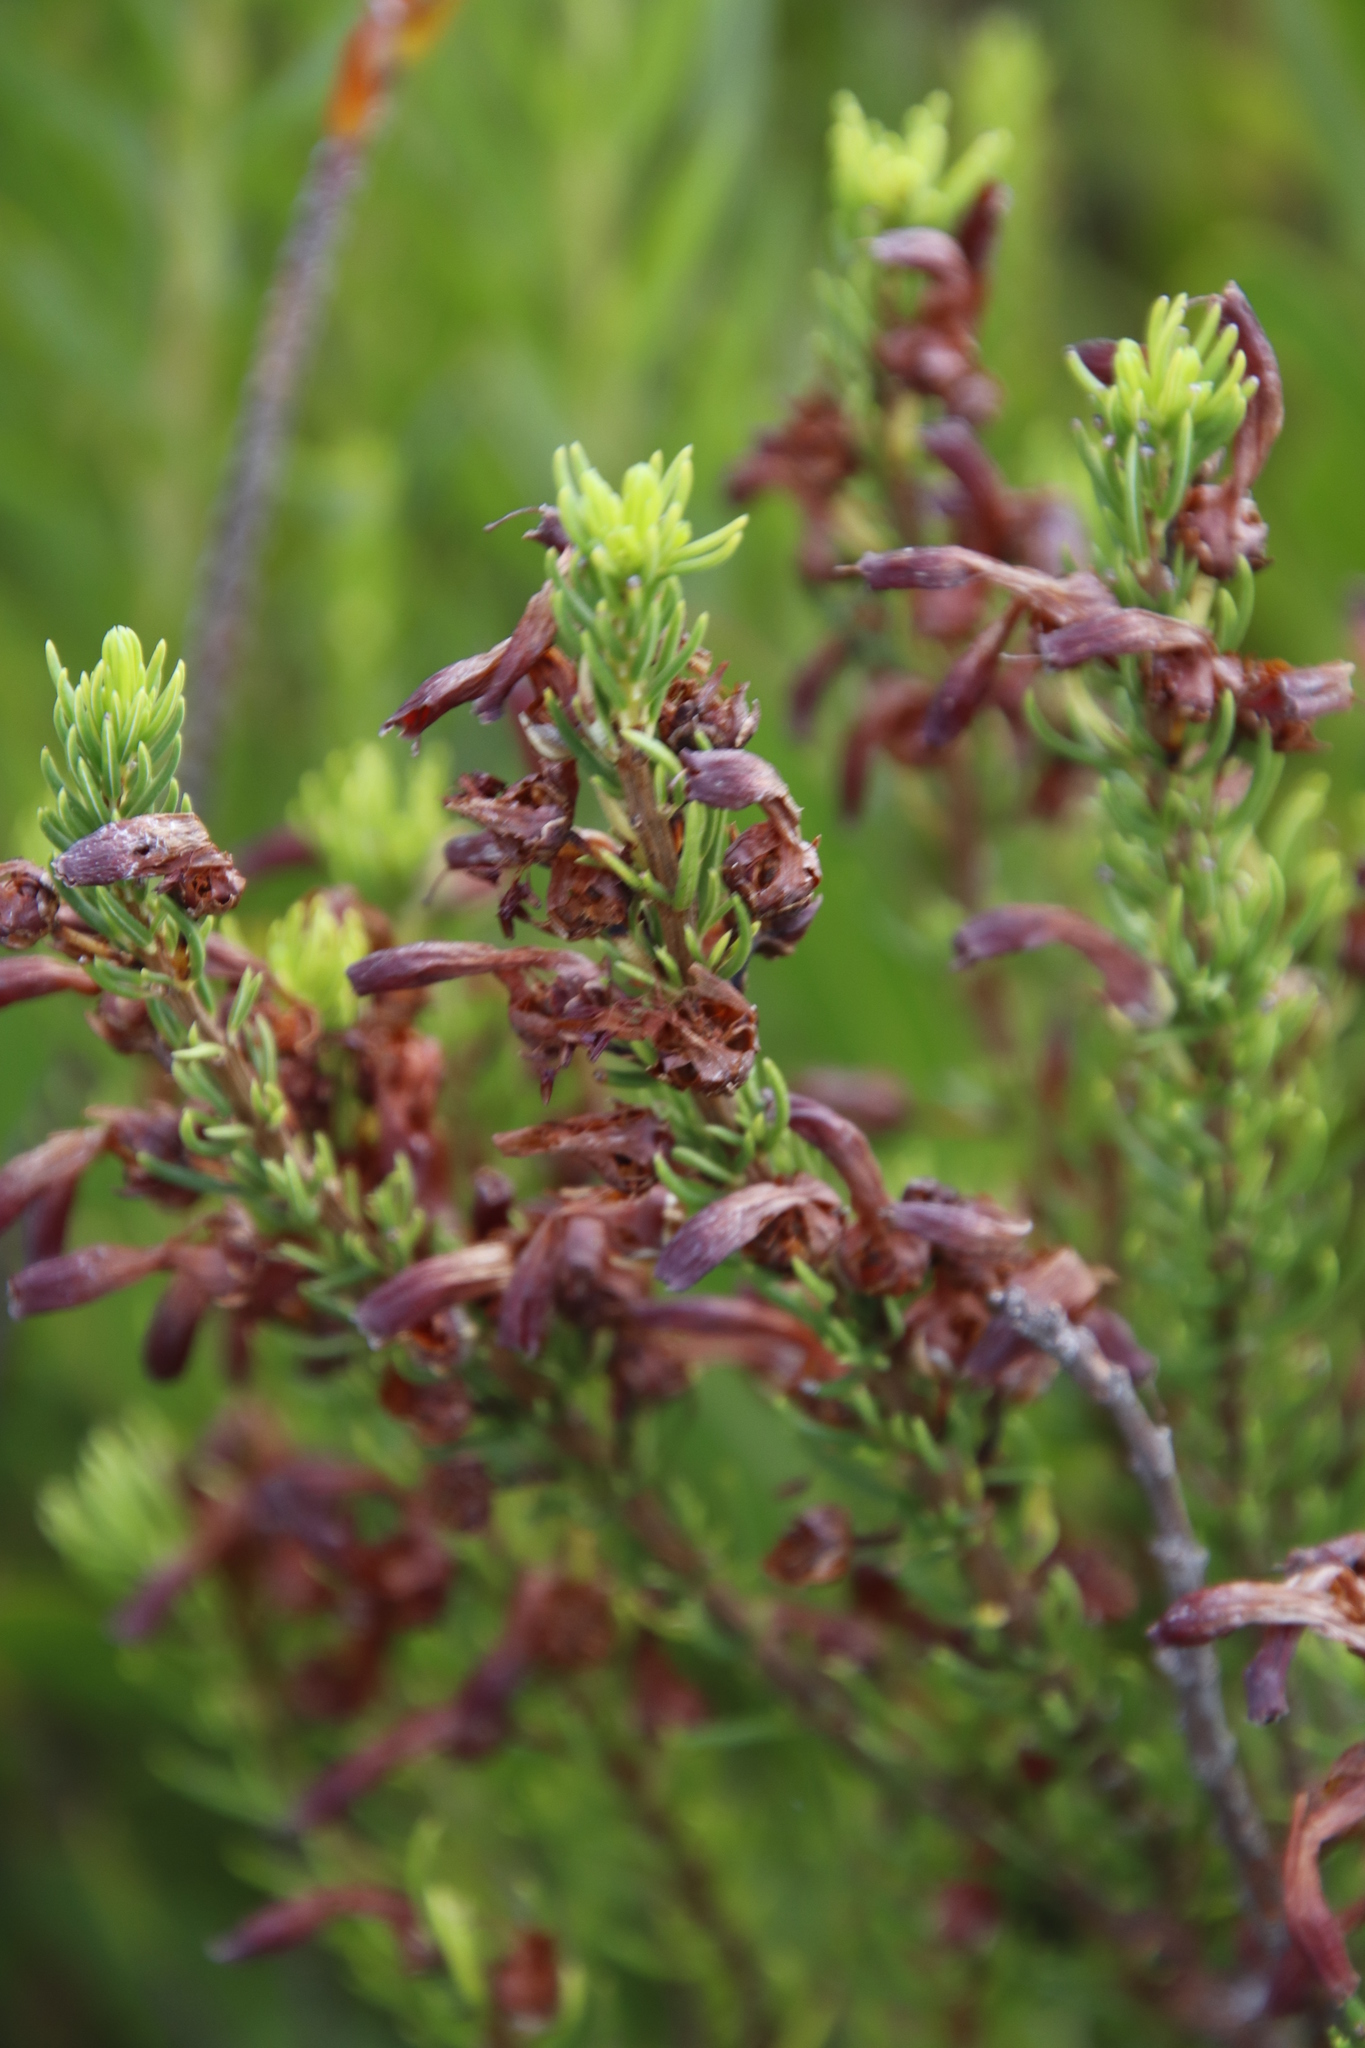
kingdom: Plantae
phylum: Tracheophyta
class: Magnoliopsida
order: Ericales
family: Ericaceae
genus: Erica
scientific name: Erica mammosa
